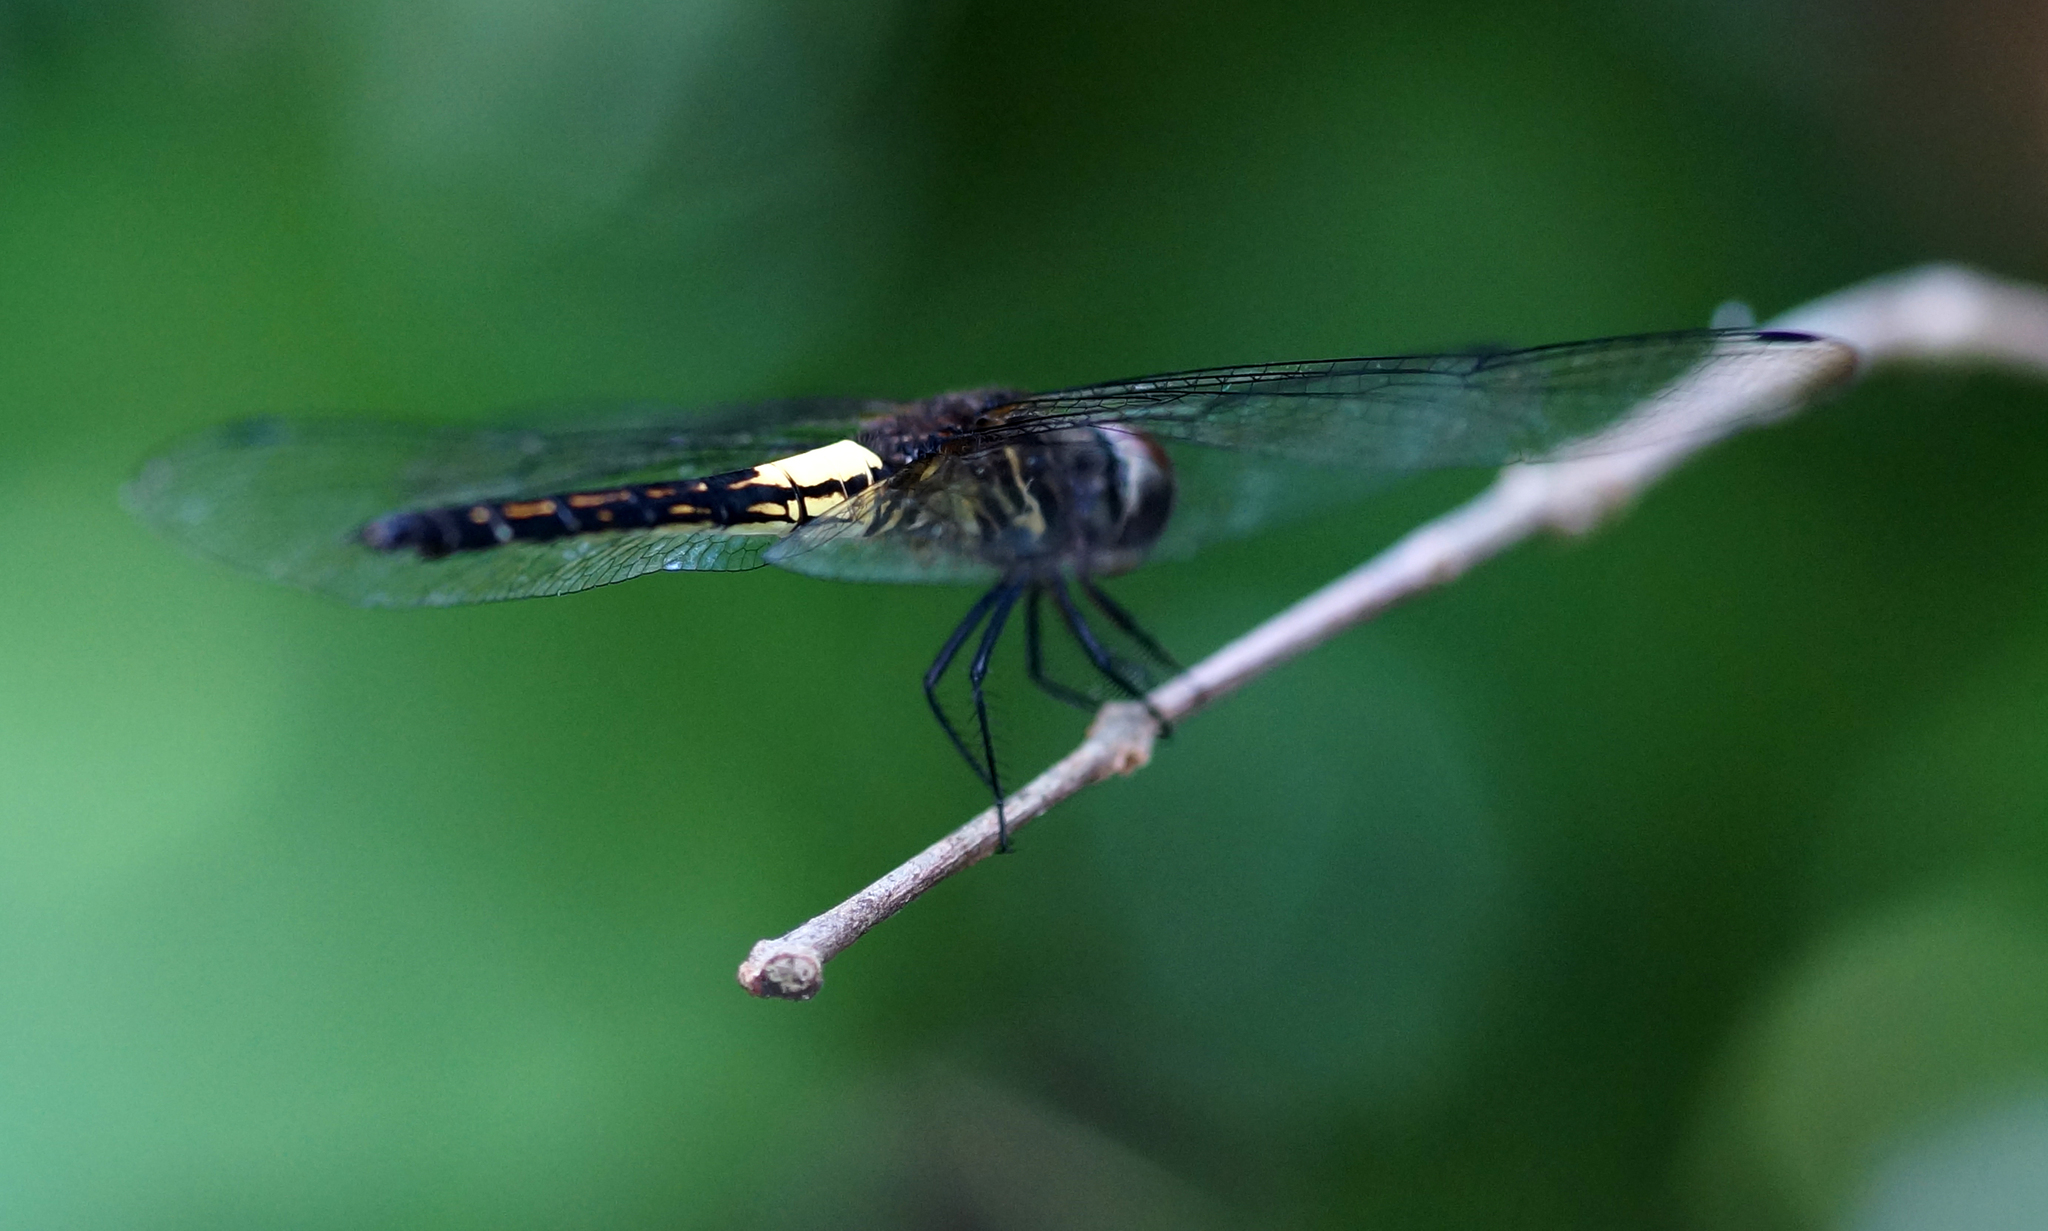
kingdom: Animalia
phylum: Arthropoda
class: Insecta
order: Odonata
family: Libellulidae
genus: Pseudothemis
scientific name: Pseudothemis jorina
